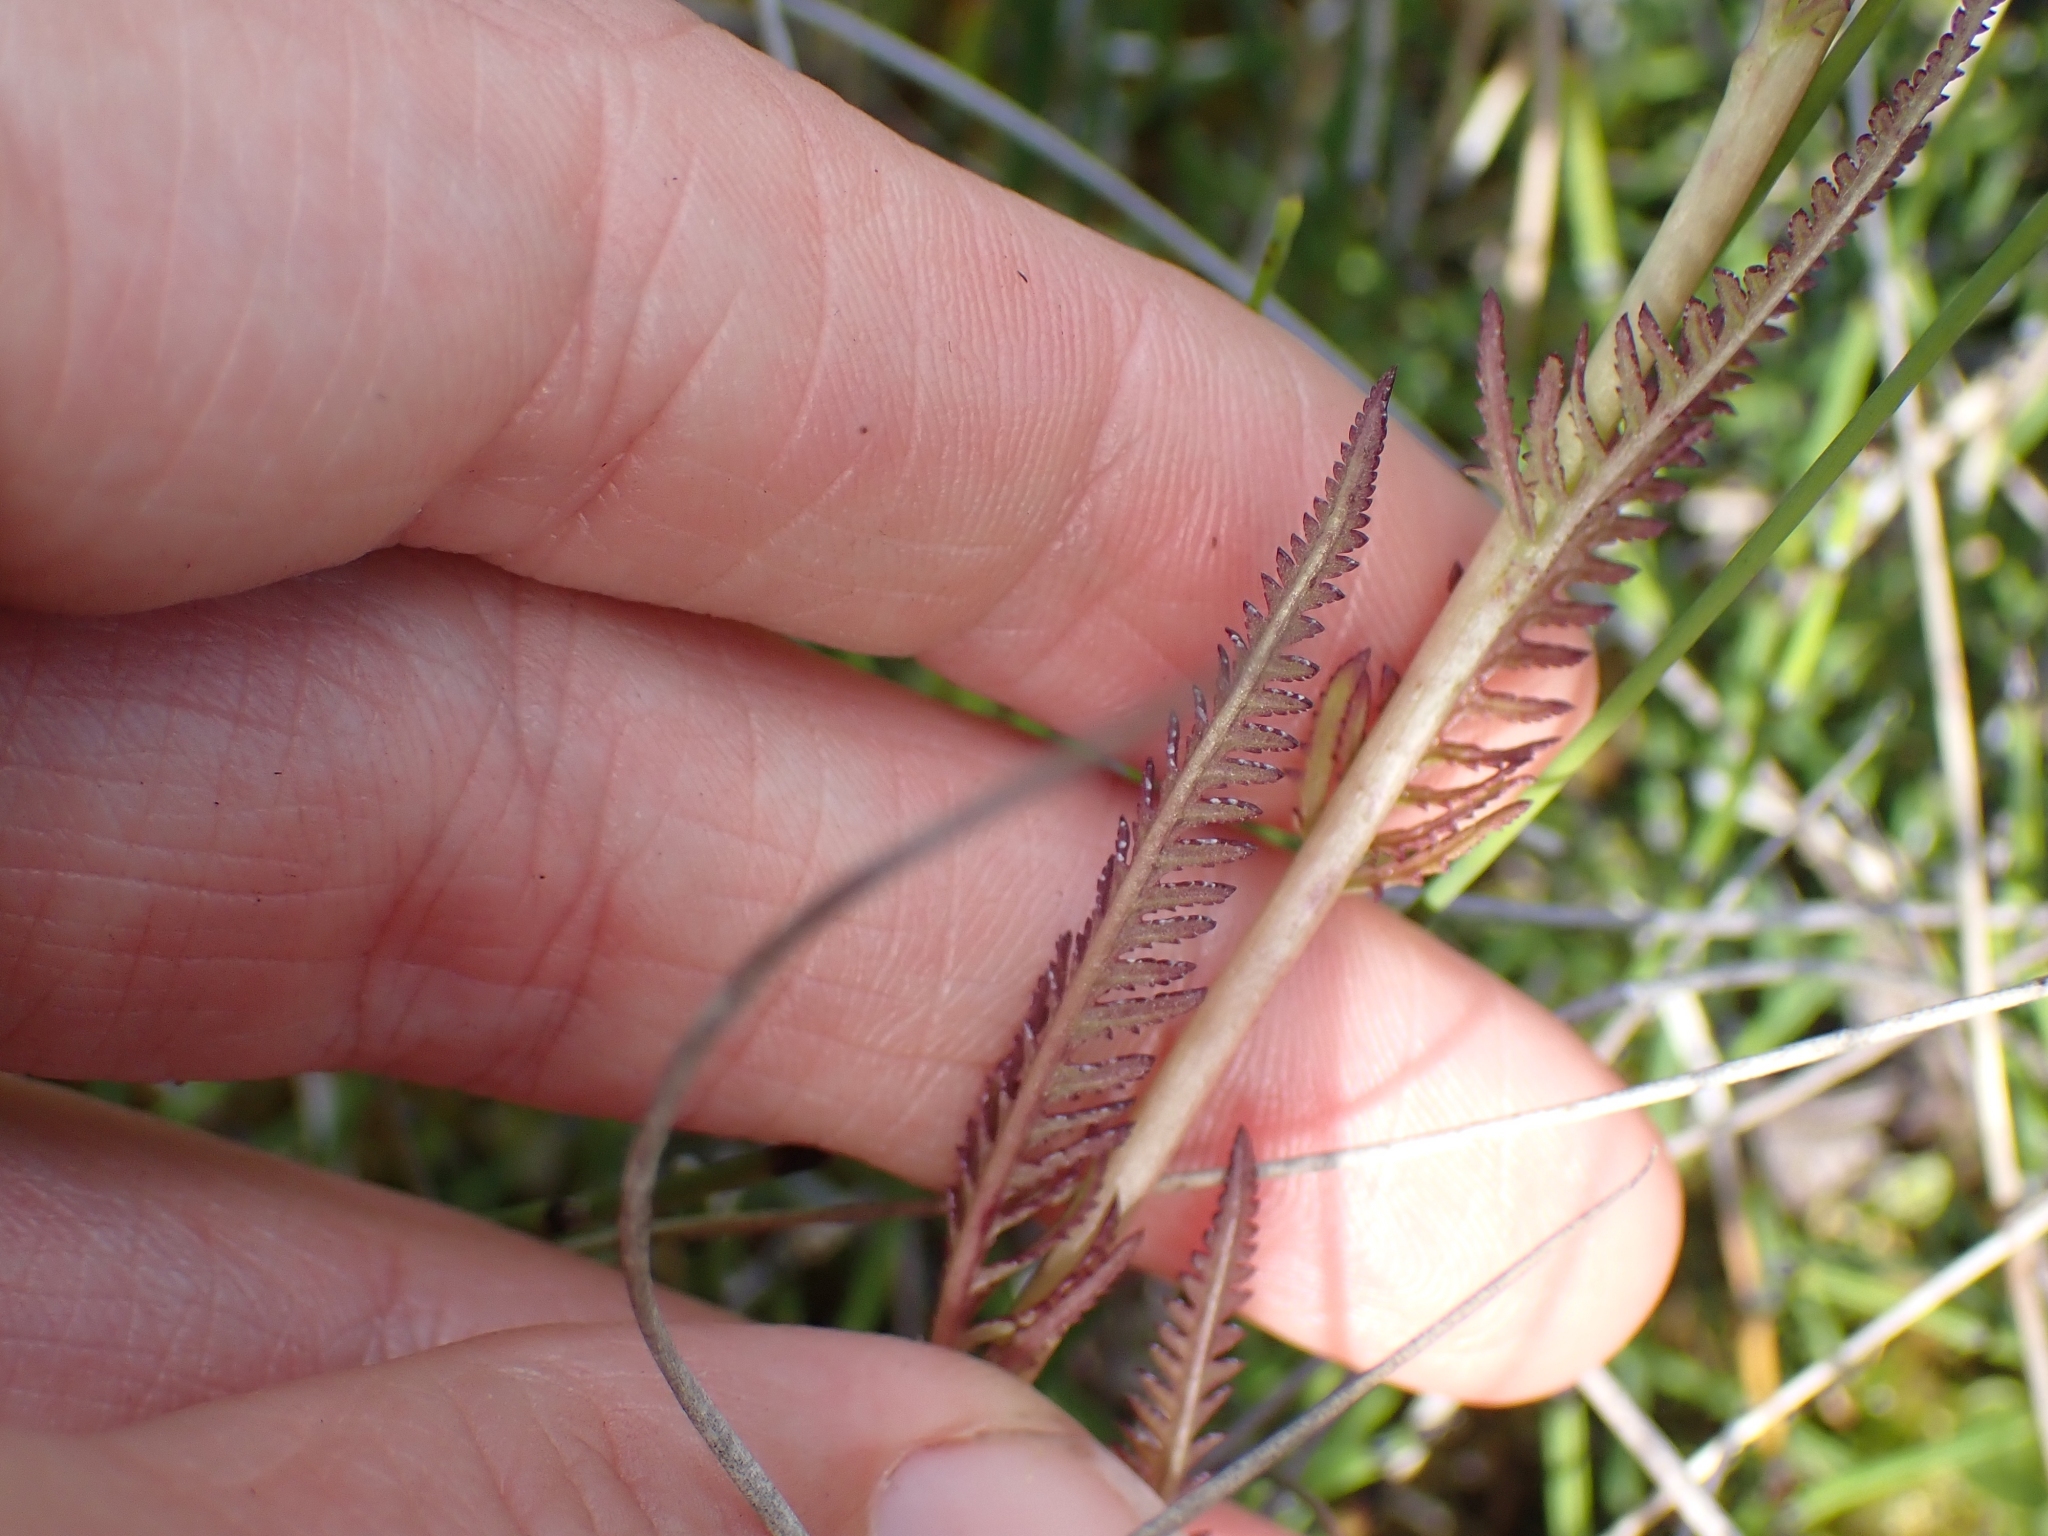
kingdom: Plantae
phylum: Tracheophyta
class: Magnoliopsida
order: Lamiales
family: Orobanchaceae
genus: Pedicularis
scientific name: Pedicularis groenlandica
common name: Elephant's-head
